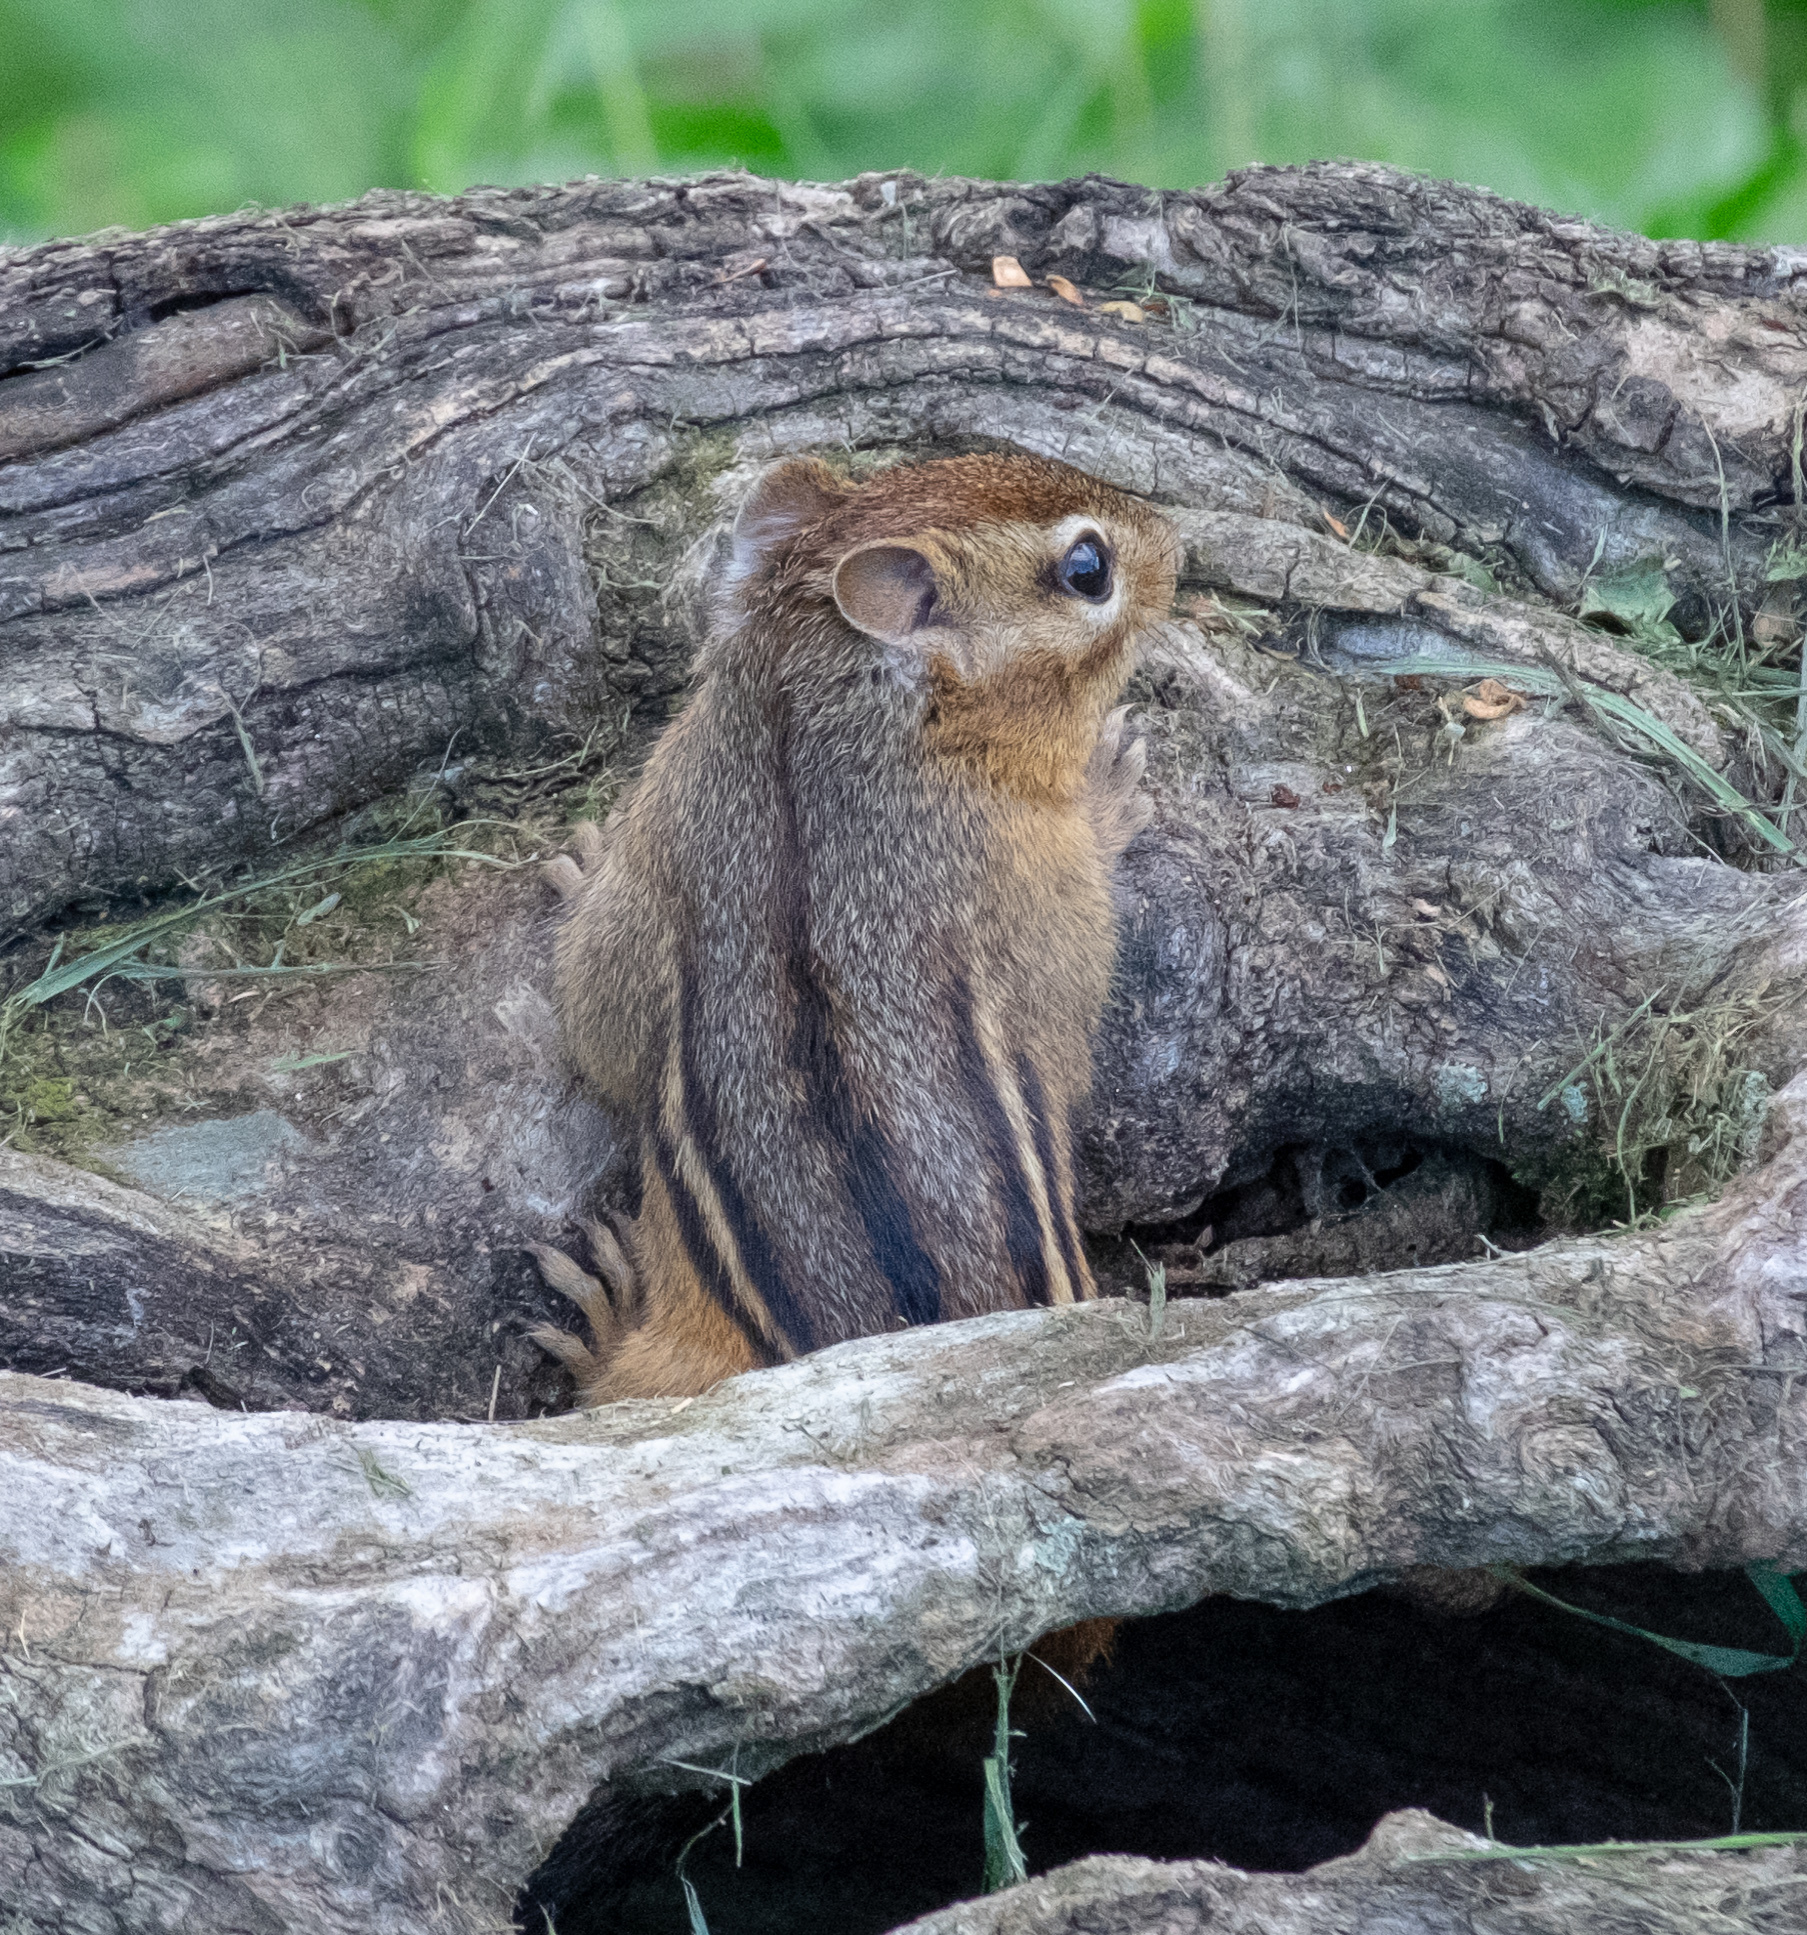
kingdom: Animalia
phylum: Chordata
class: Mammalia
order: Rodentia
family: Sciuridae
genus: Tamias
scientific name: Tamias striatus
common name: Eastern chipmunk
